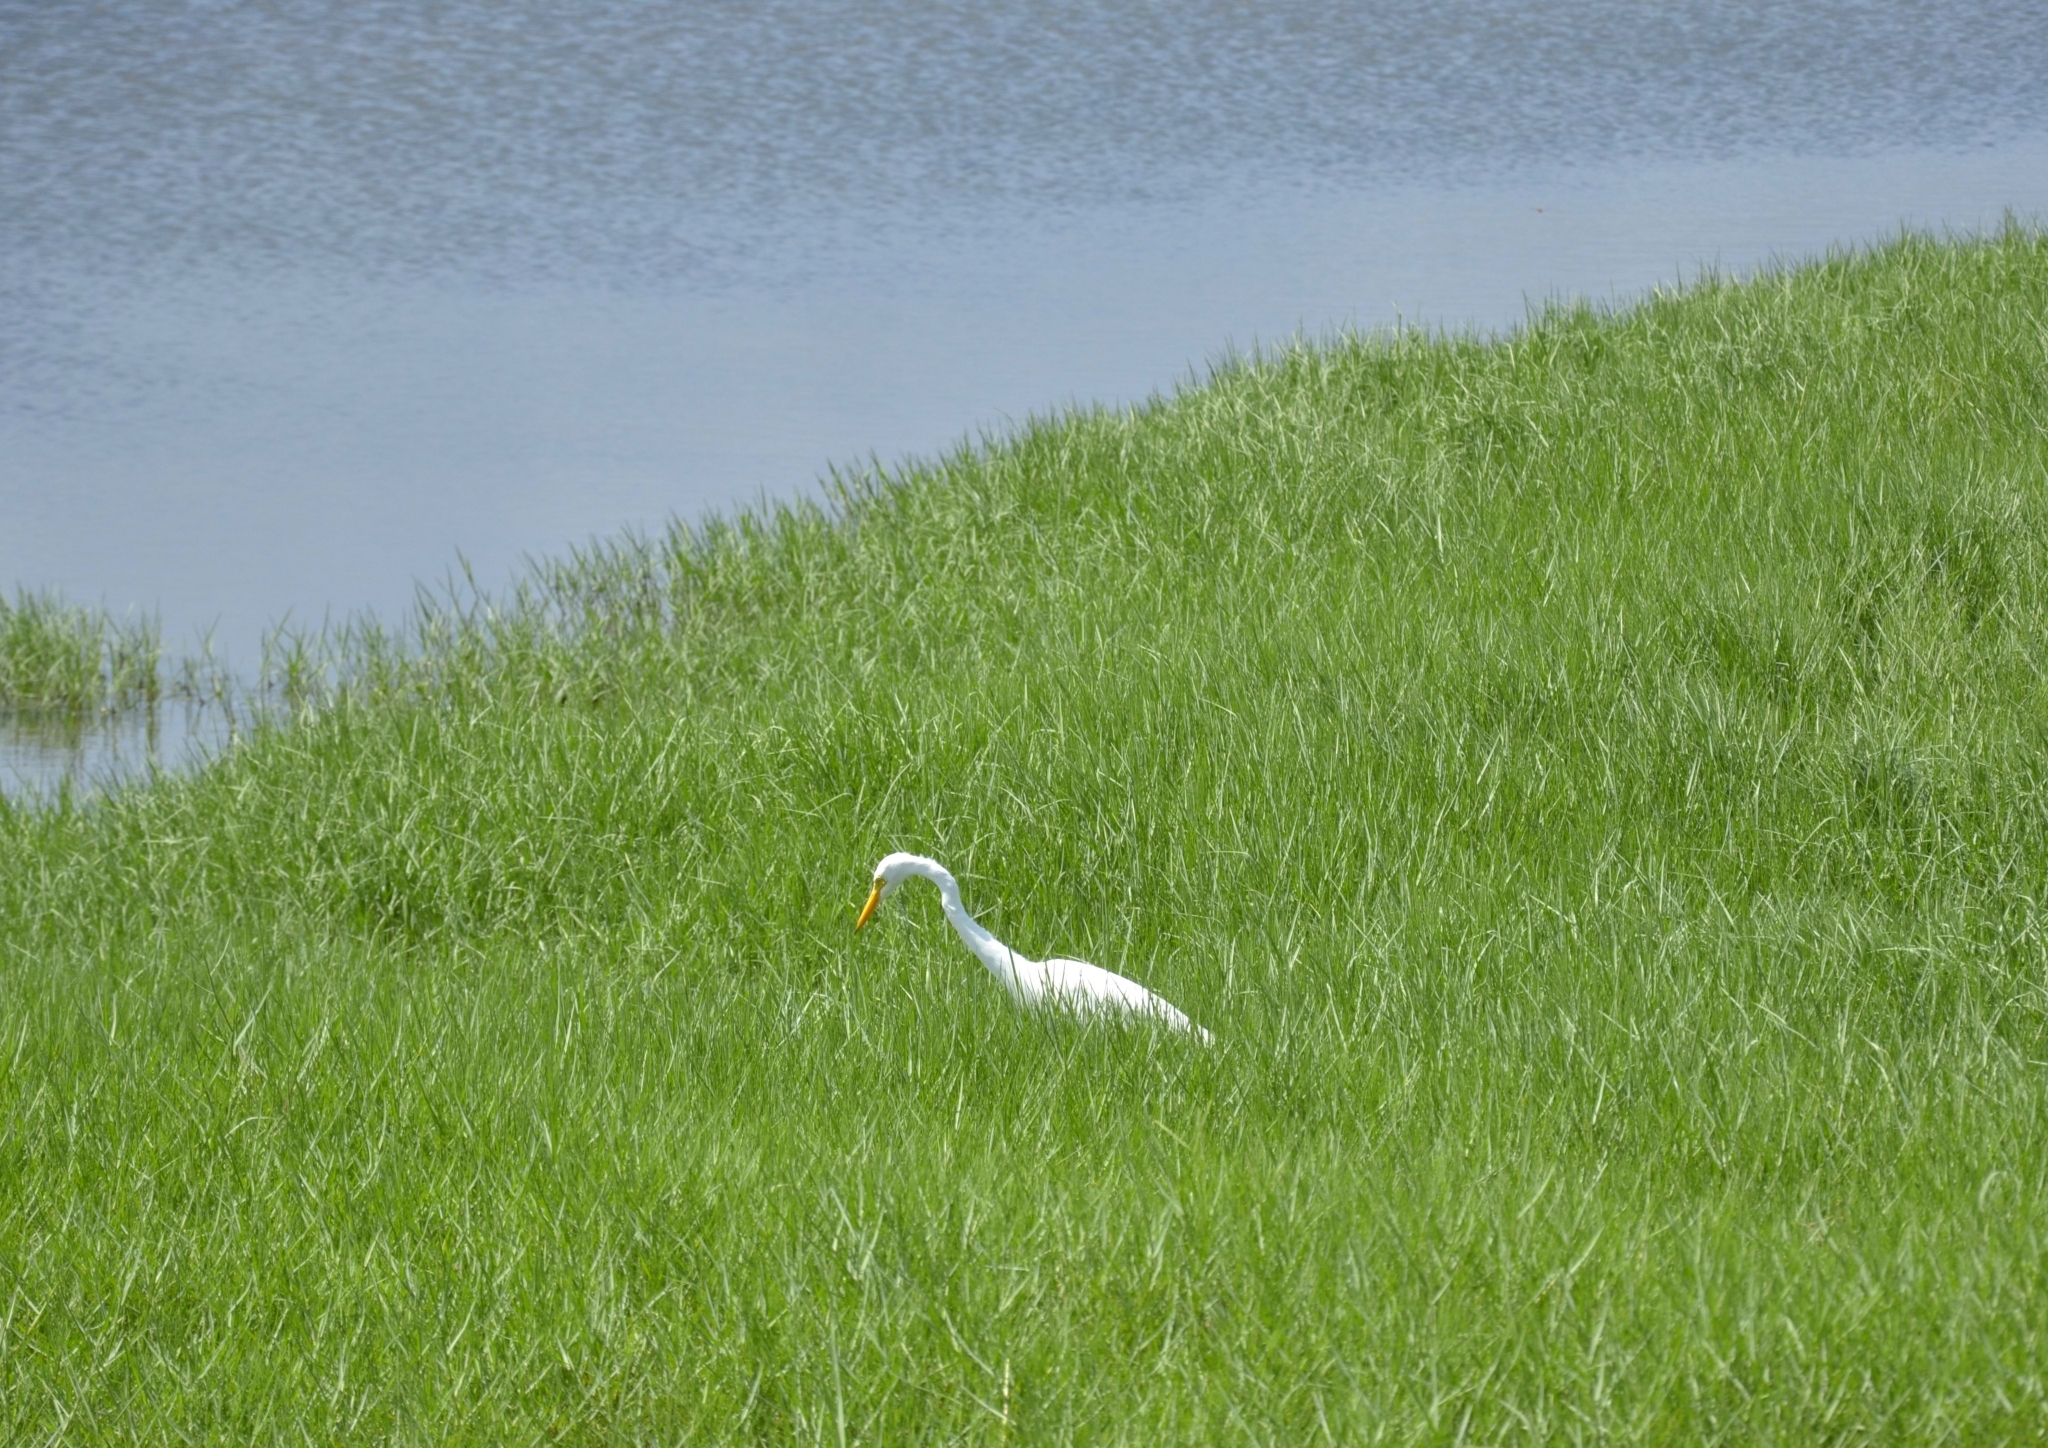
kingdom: Animalia
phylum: Chordata
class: Aves
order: Pelecaniformes
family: Ardeidae
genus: Ardea
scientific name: Ardea alba
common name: Great egret
